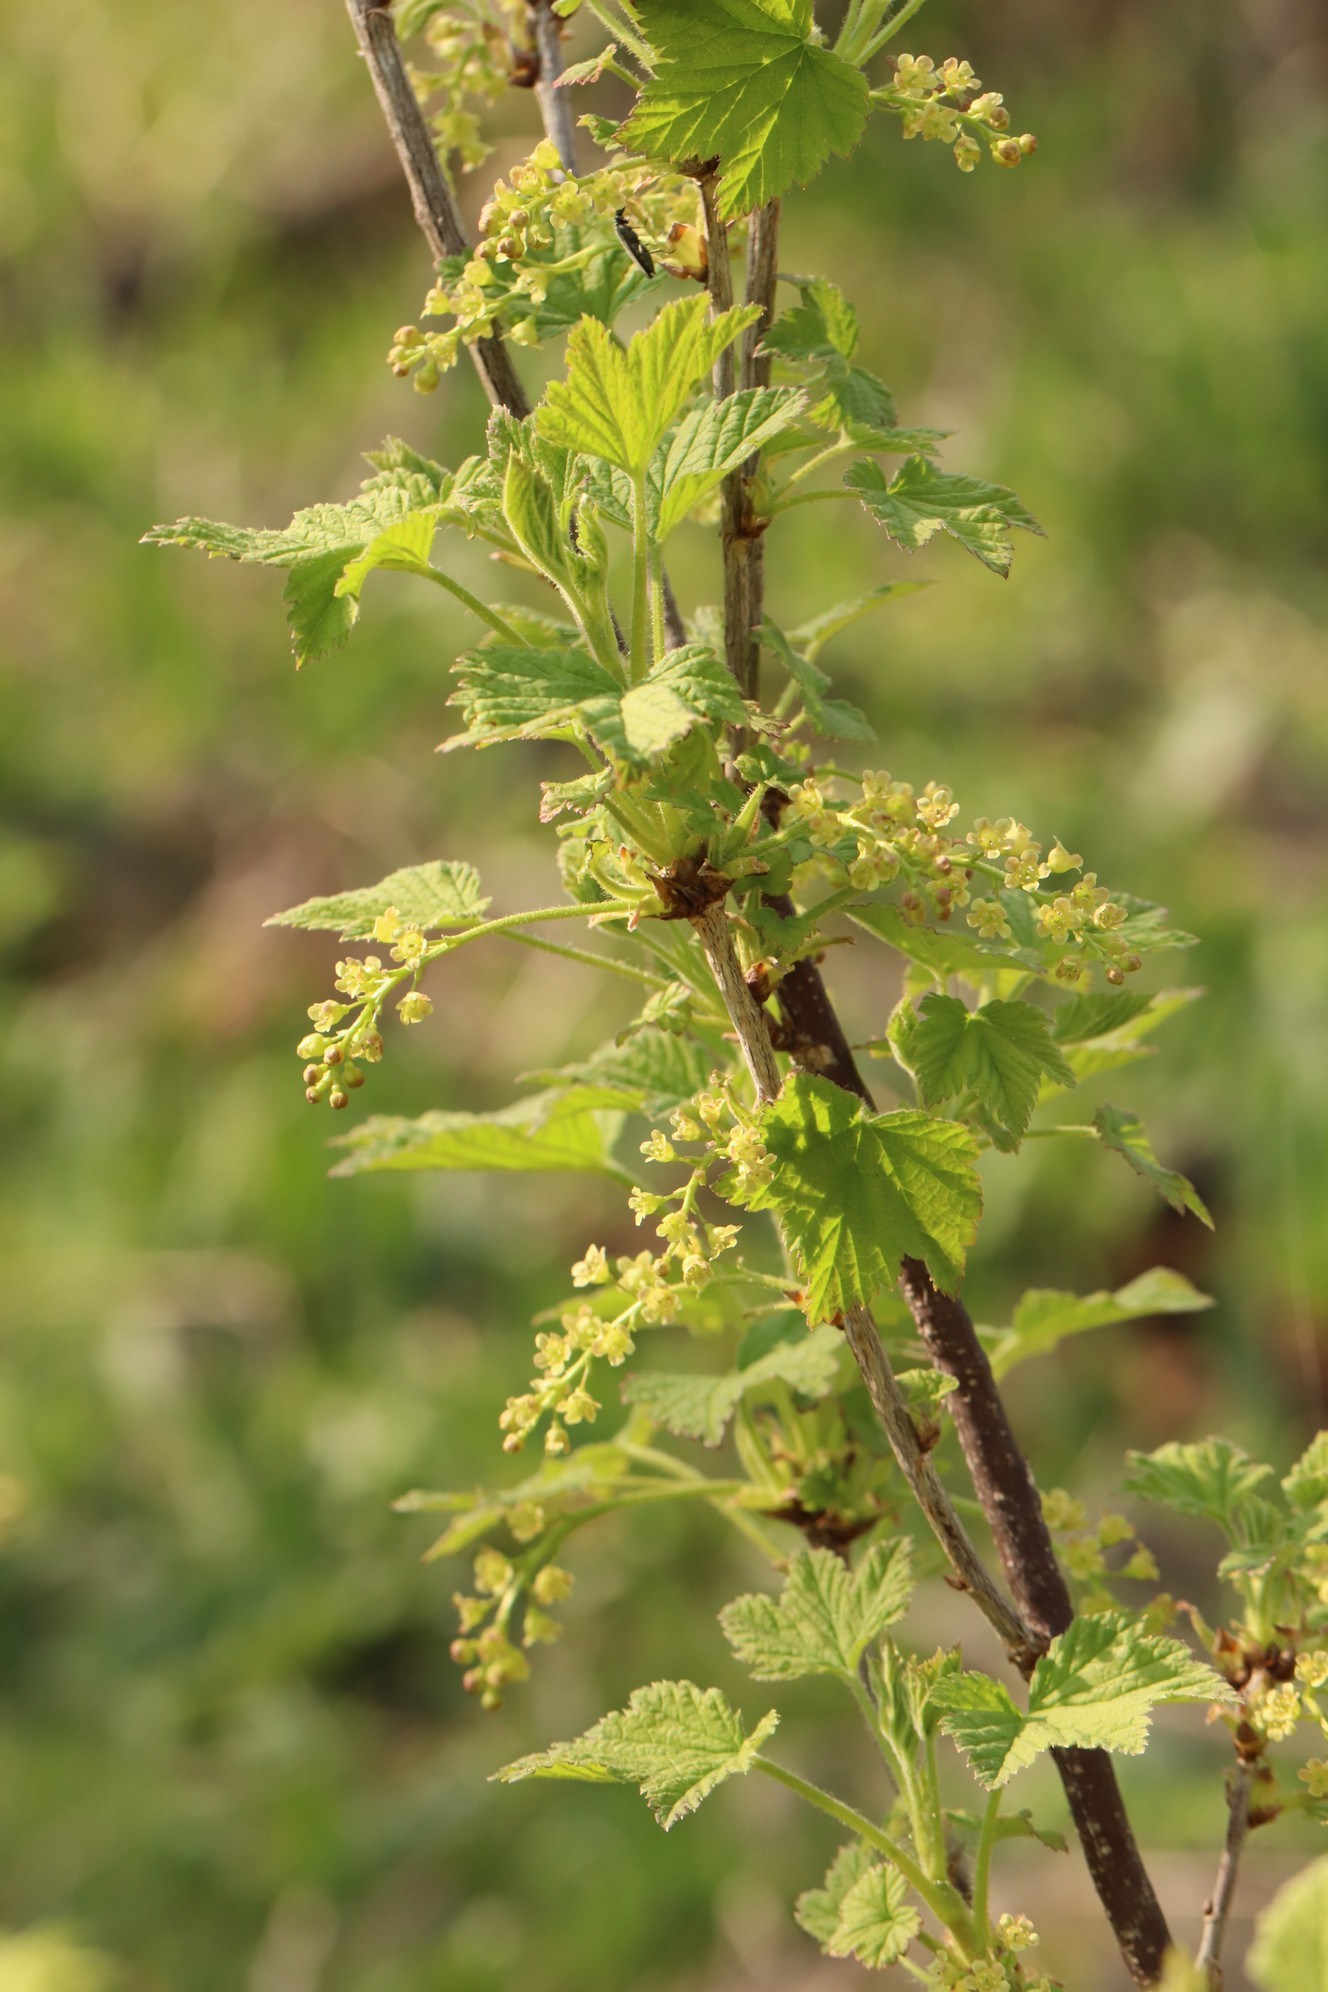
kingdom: Plantae
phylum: Tracheophyta
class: Magnoliopsida
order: Saxifragales
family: Grossulariaceae
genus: Ribes
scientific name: Ribes spicatum
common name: Downy currant
